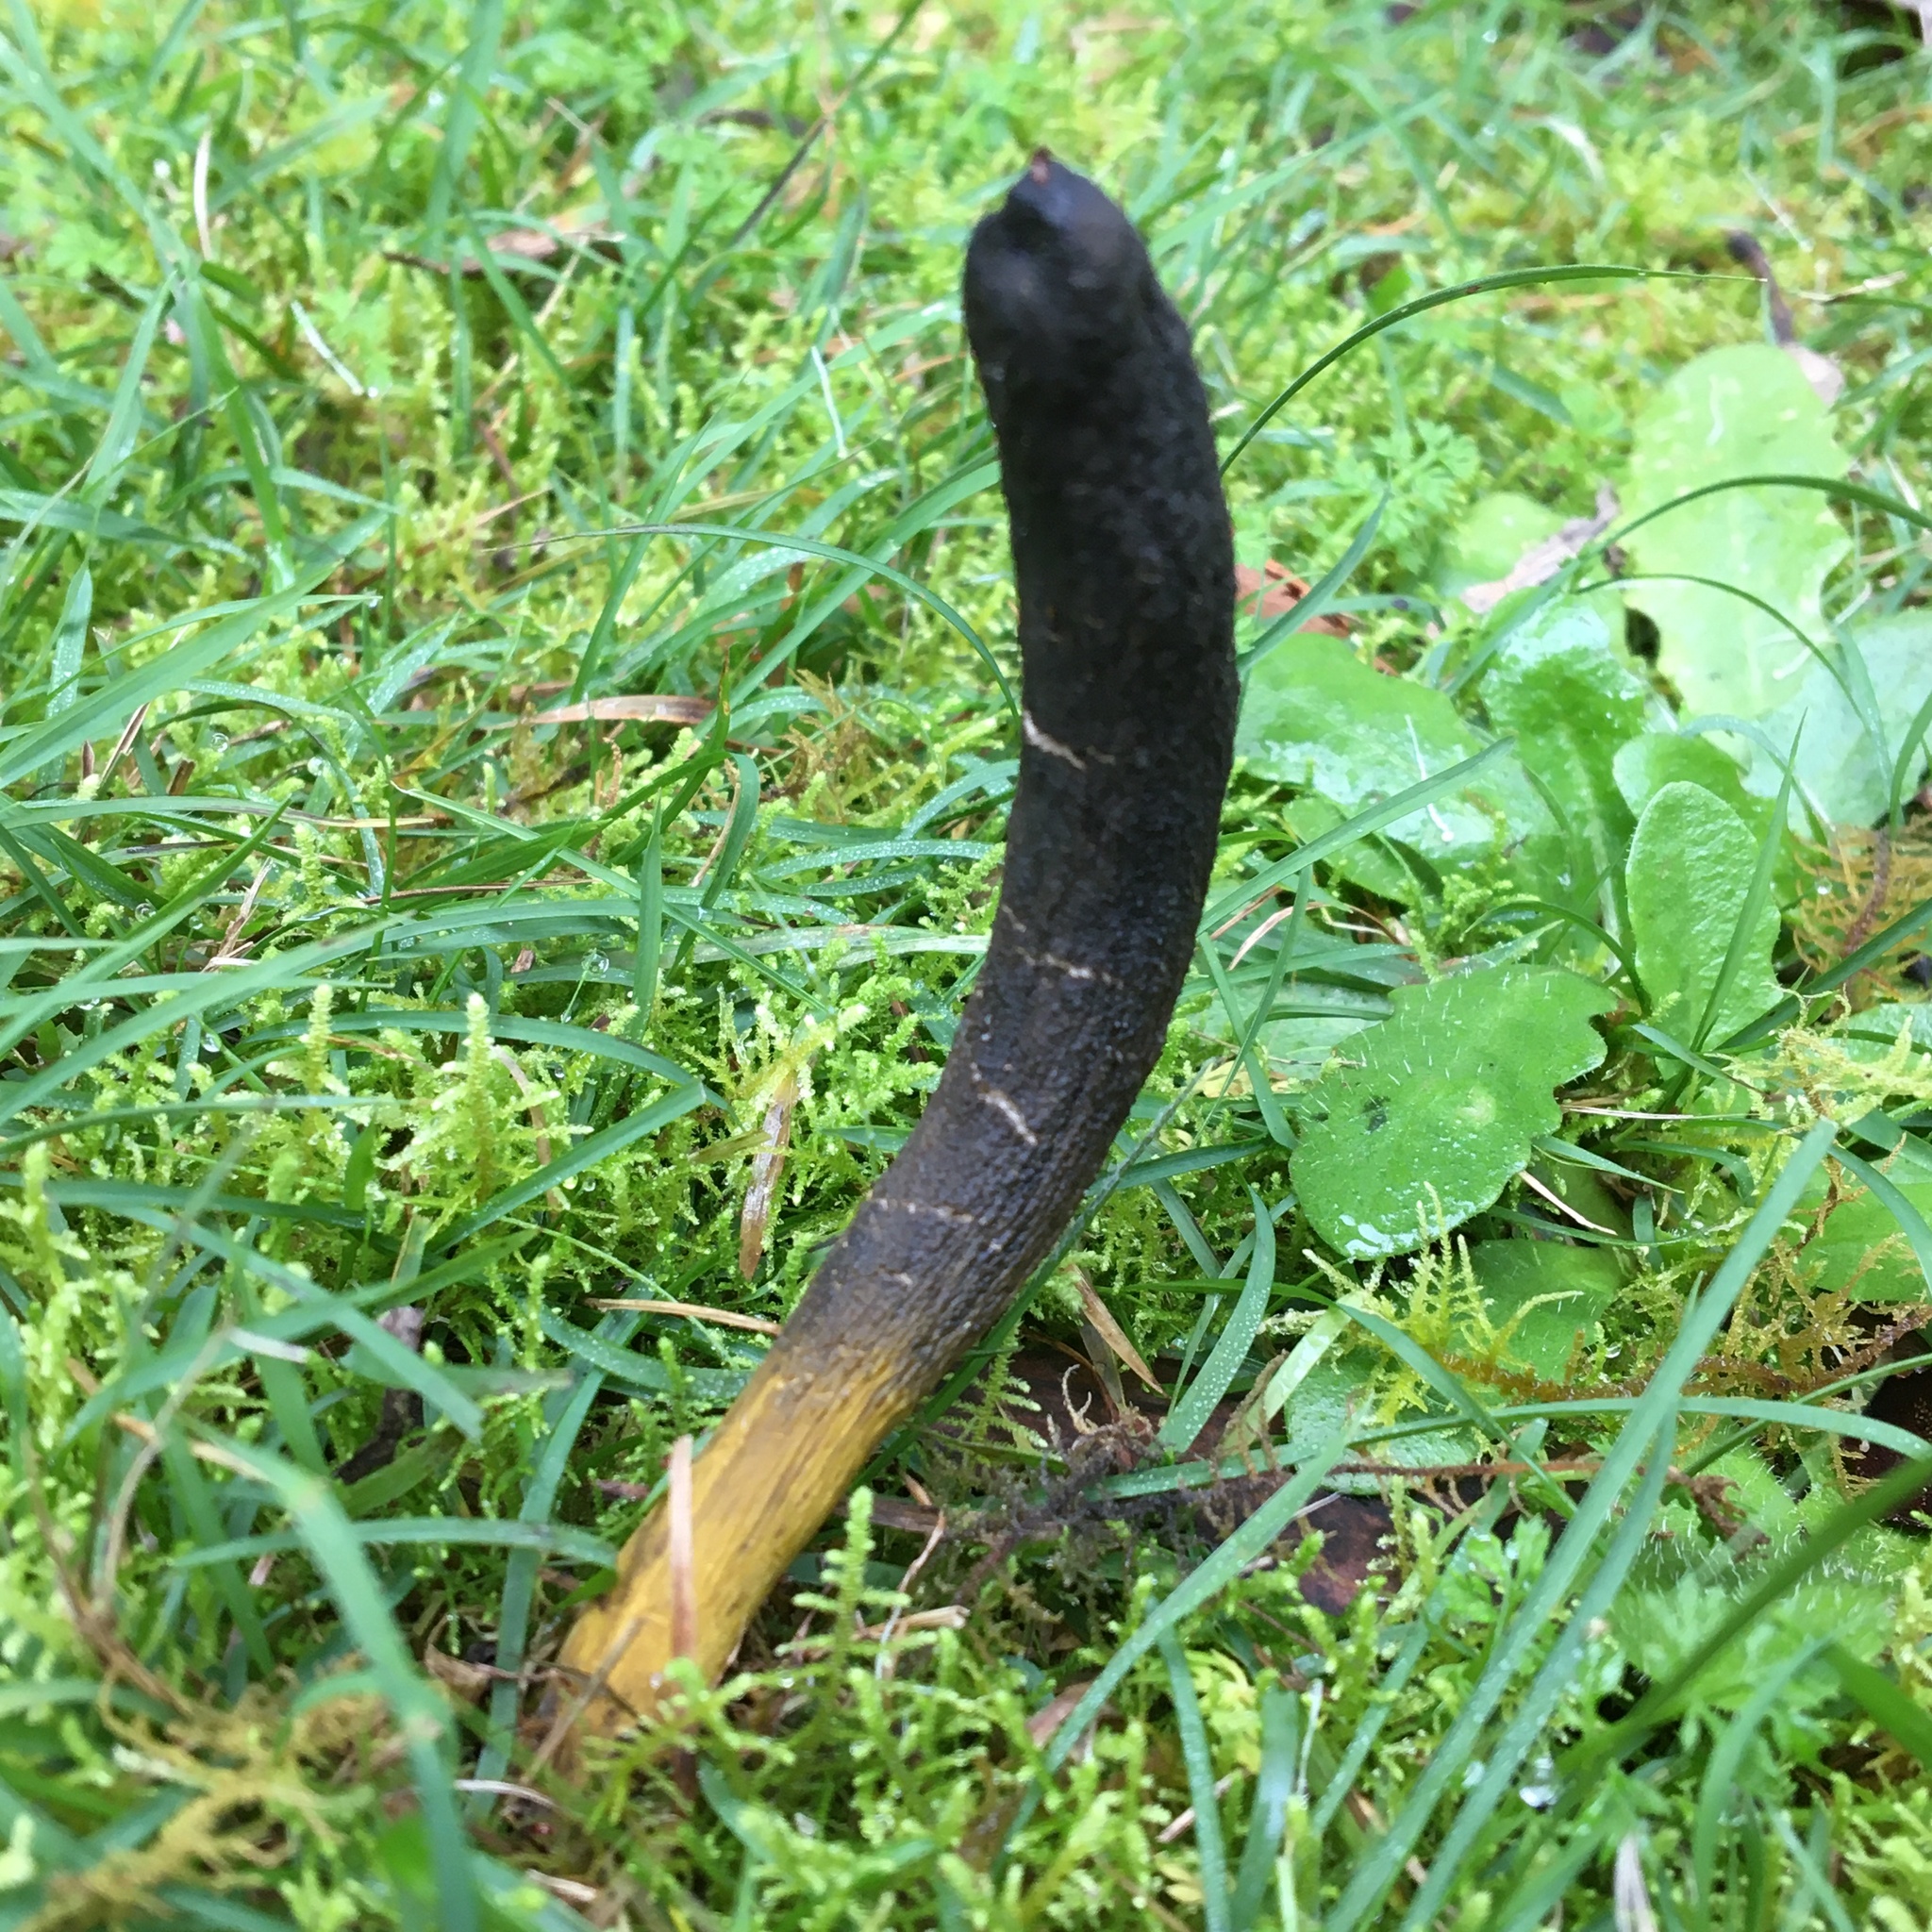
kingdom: Fungi
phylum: Ascomycota
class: Sordariomycetes
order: Hypocreales
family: Clavicipitaceae
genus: Drechmeria
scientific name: Drechmeria gunnii
